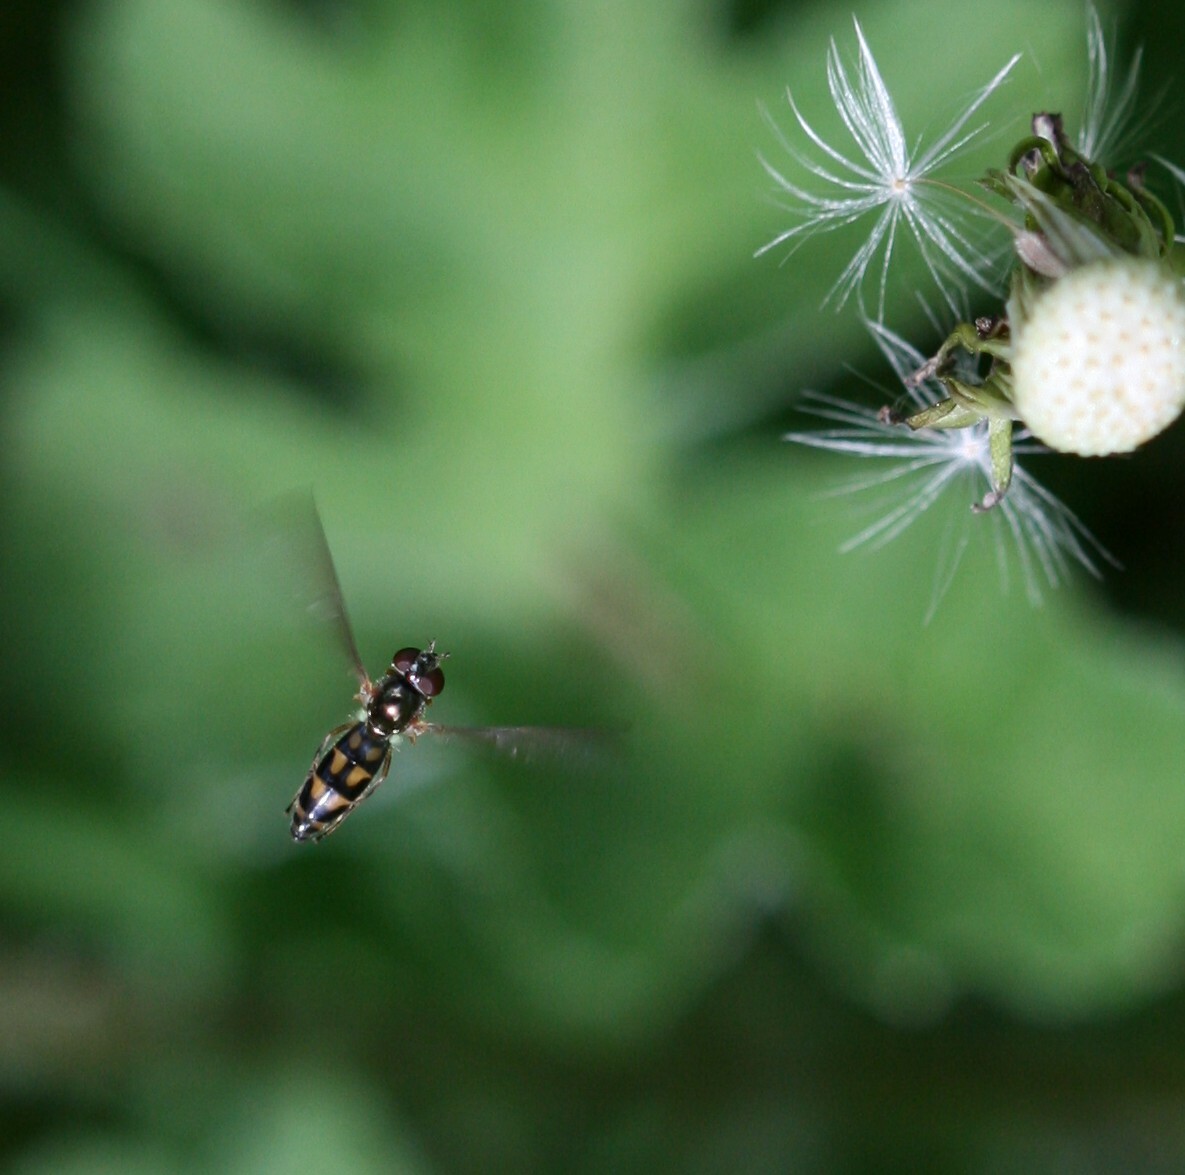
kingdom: Animalia
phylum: Arthropoda
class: Insecta
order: Diptera
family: Syrphidae
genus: Melanostoma
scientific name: Melanostoma scalare
